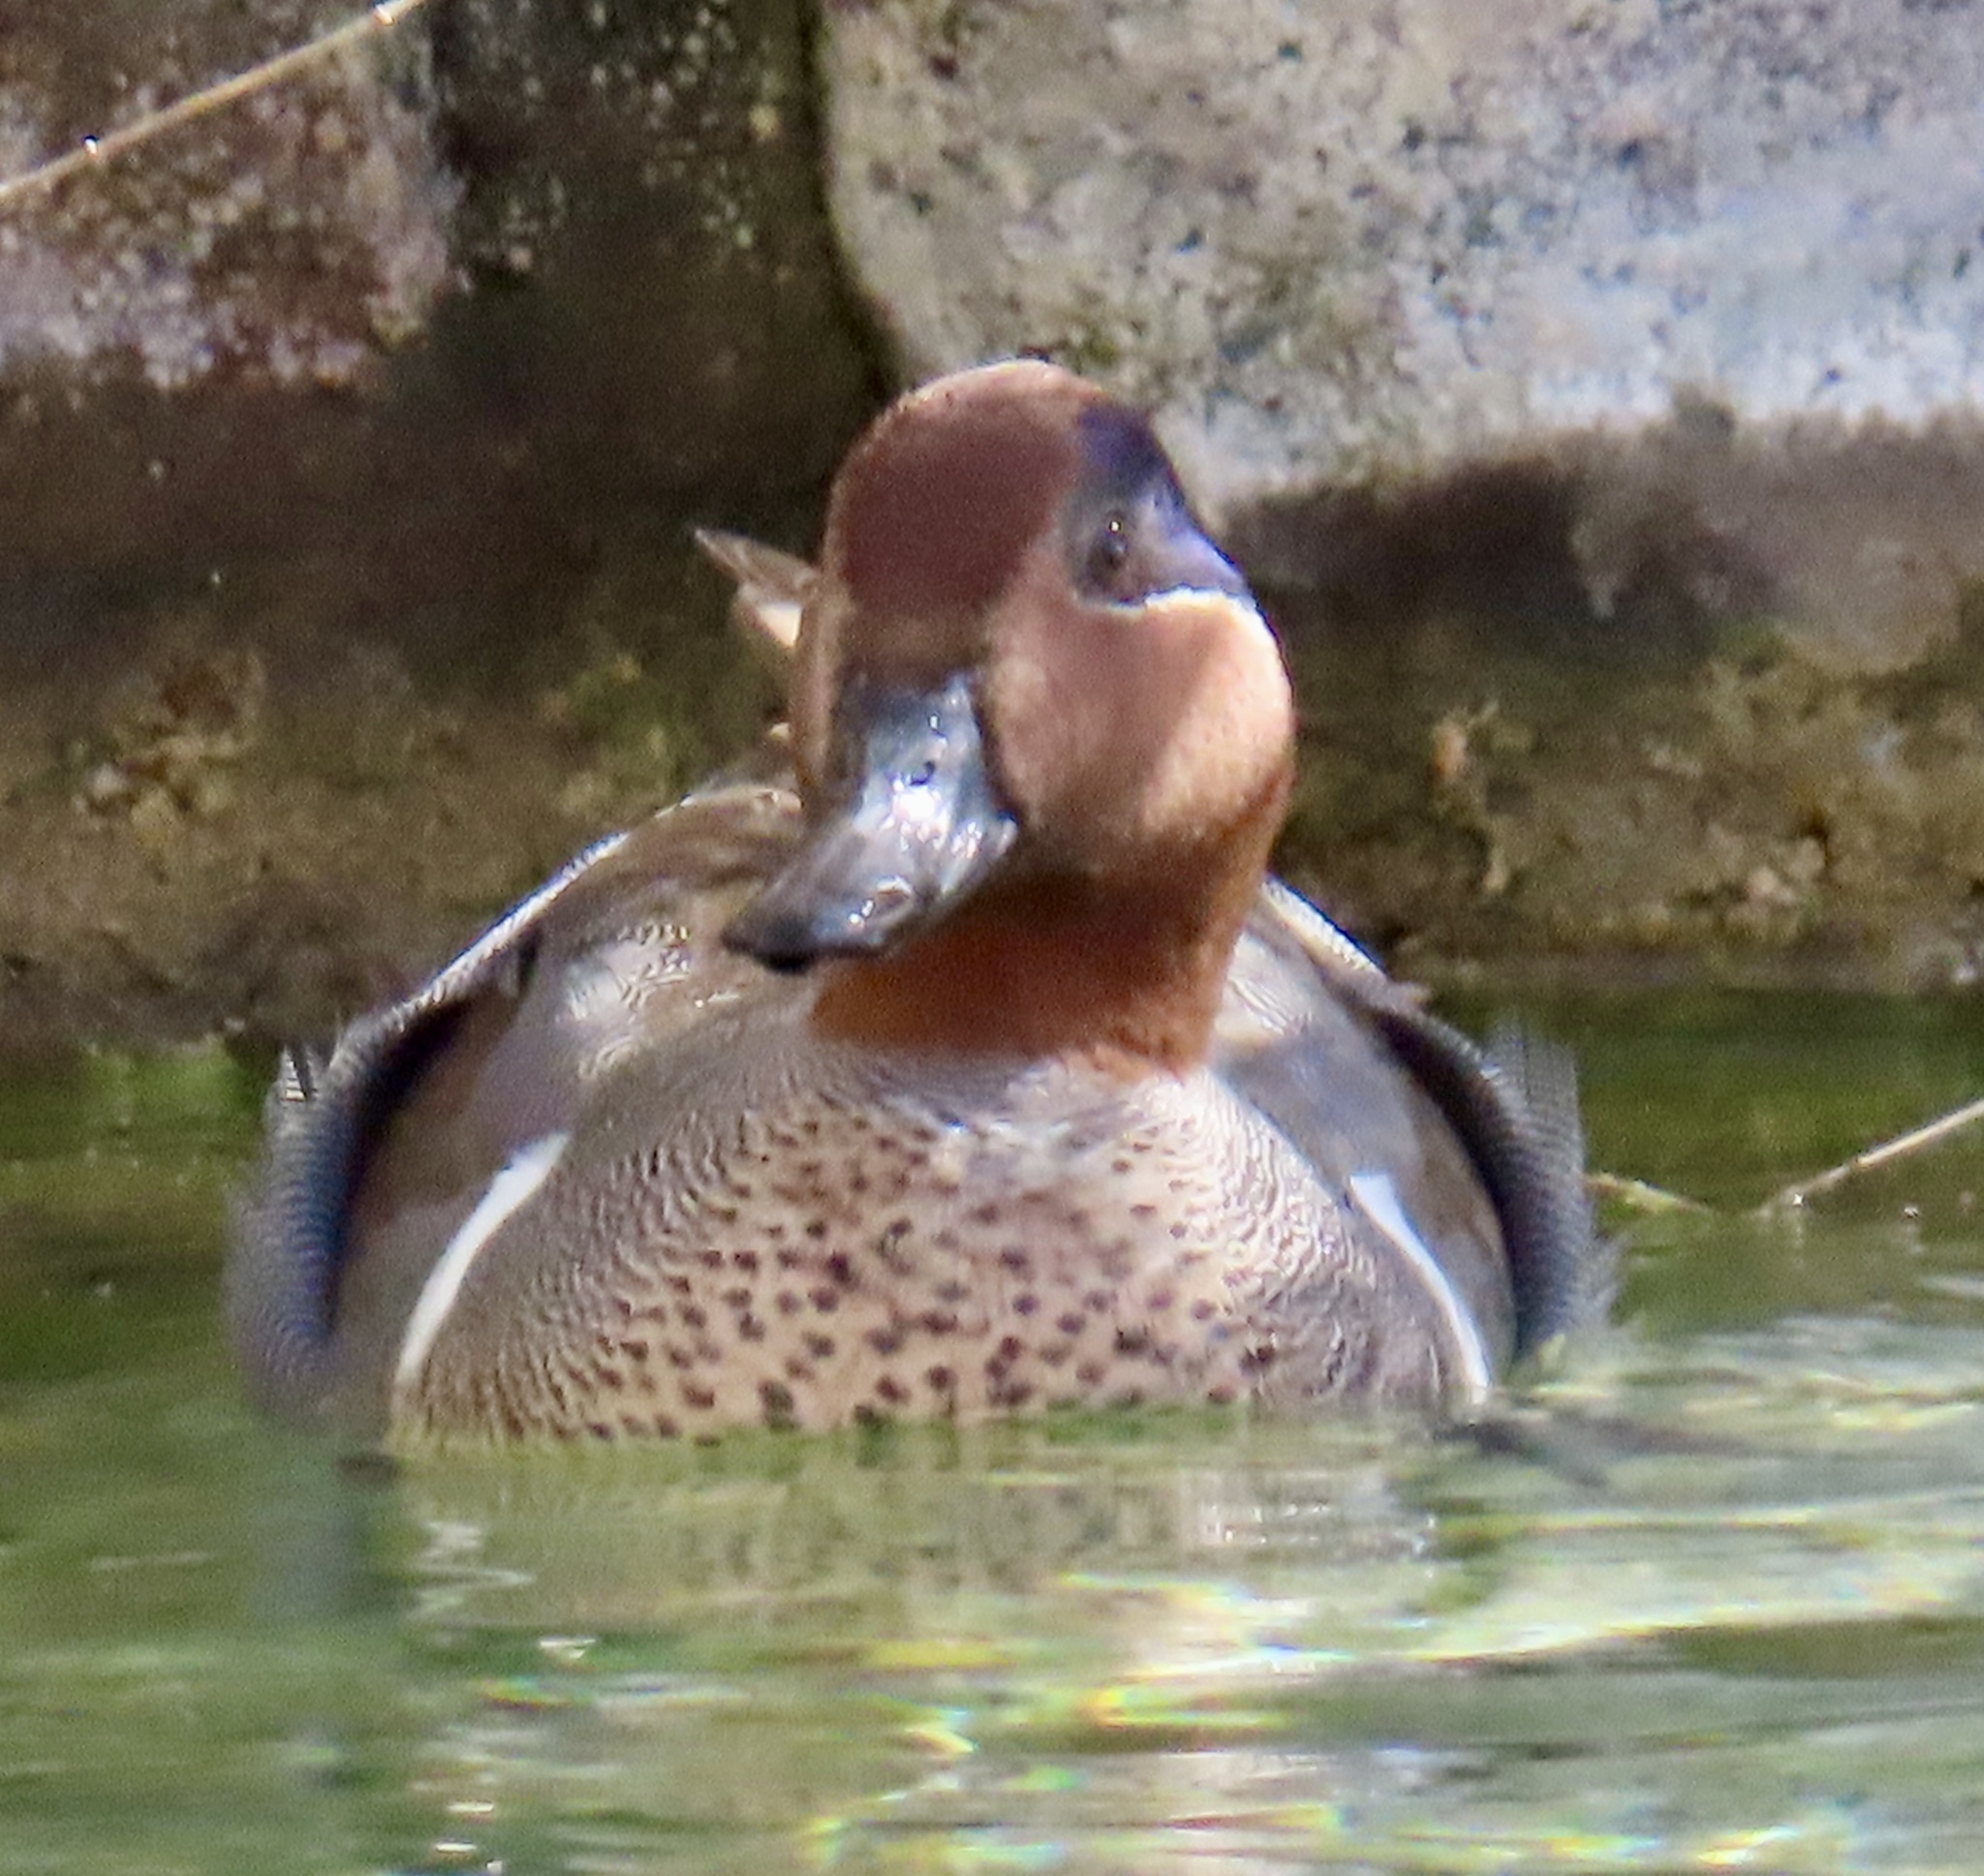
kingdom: Animalia
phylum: Chordata
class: Aves
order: Anseriformes
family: Anatidae
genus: Anas
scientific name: Anas carolinensis
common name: Green-winged teal
